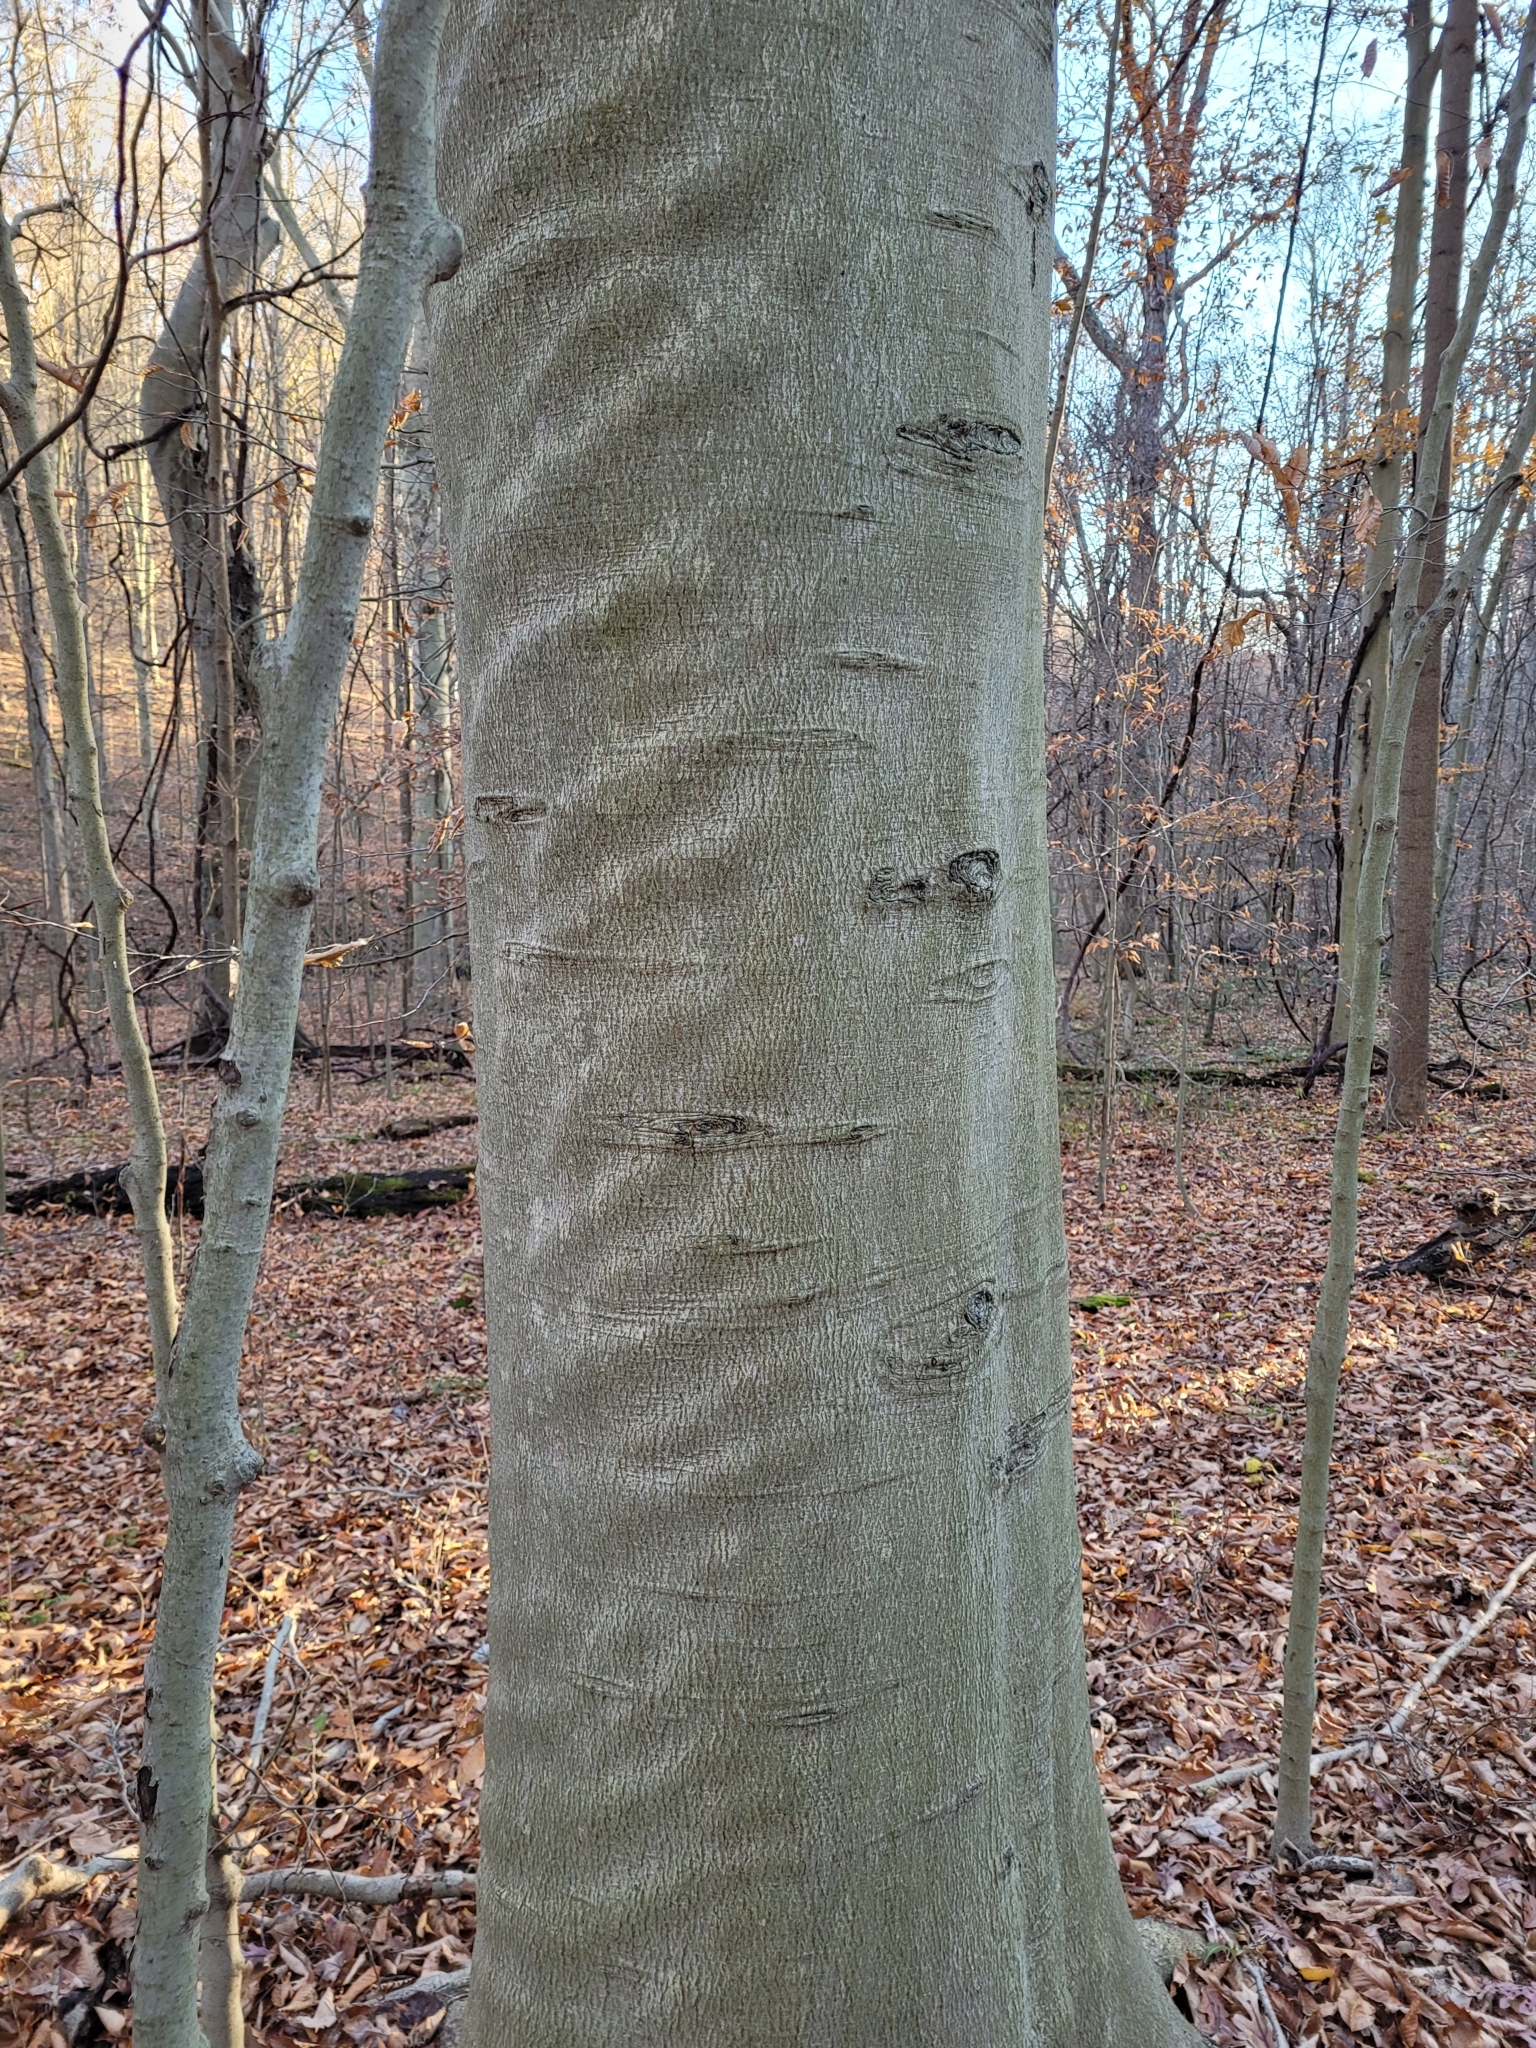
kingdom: Plantae
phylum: Tracheophyta
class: Magnoliopsida
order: Fagales
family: Fagaceae
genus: Fagus
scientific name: Fagus grandifolia
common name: American beech
